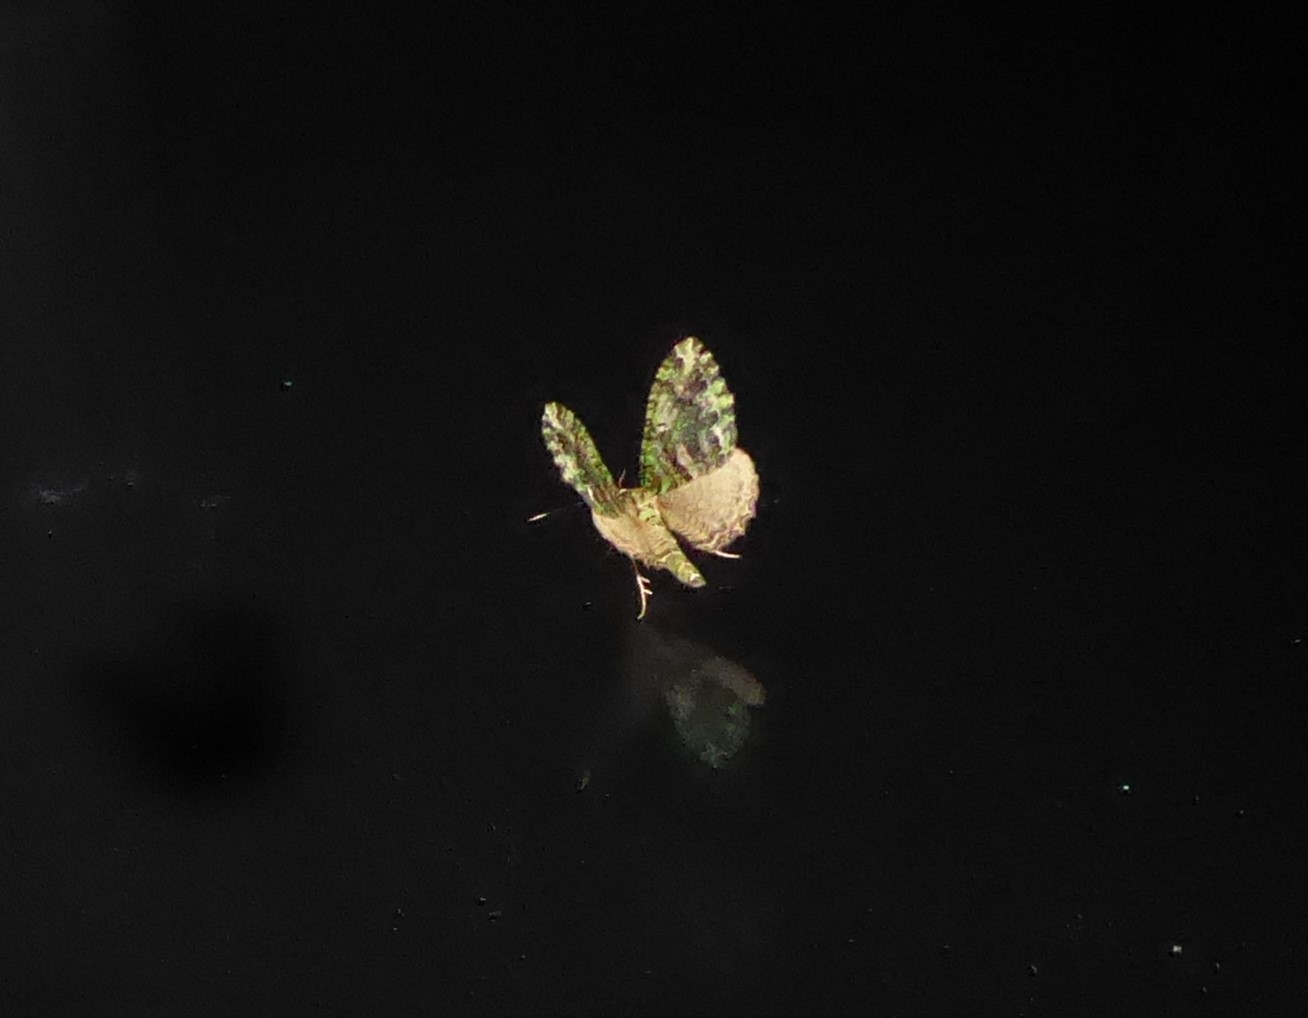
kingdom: Animalia
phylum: Arthropoda
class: Insecta
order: Lepidoptera
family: Geometridae
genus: Austrocidaria
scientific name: Austrocidaria similata
